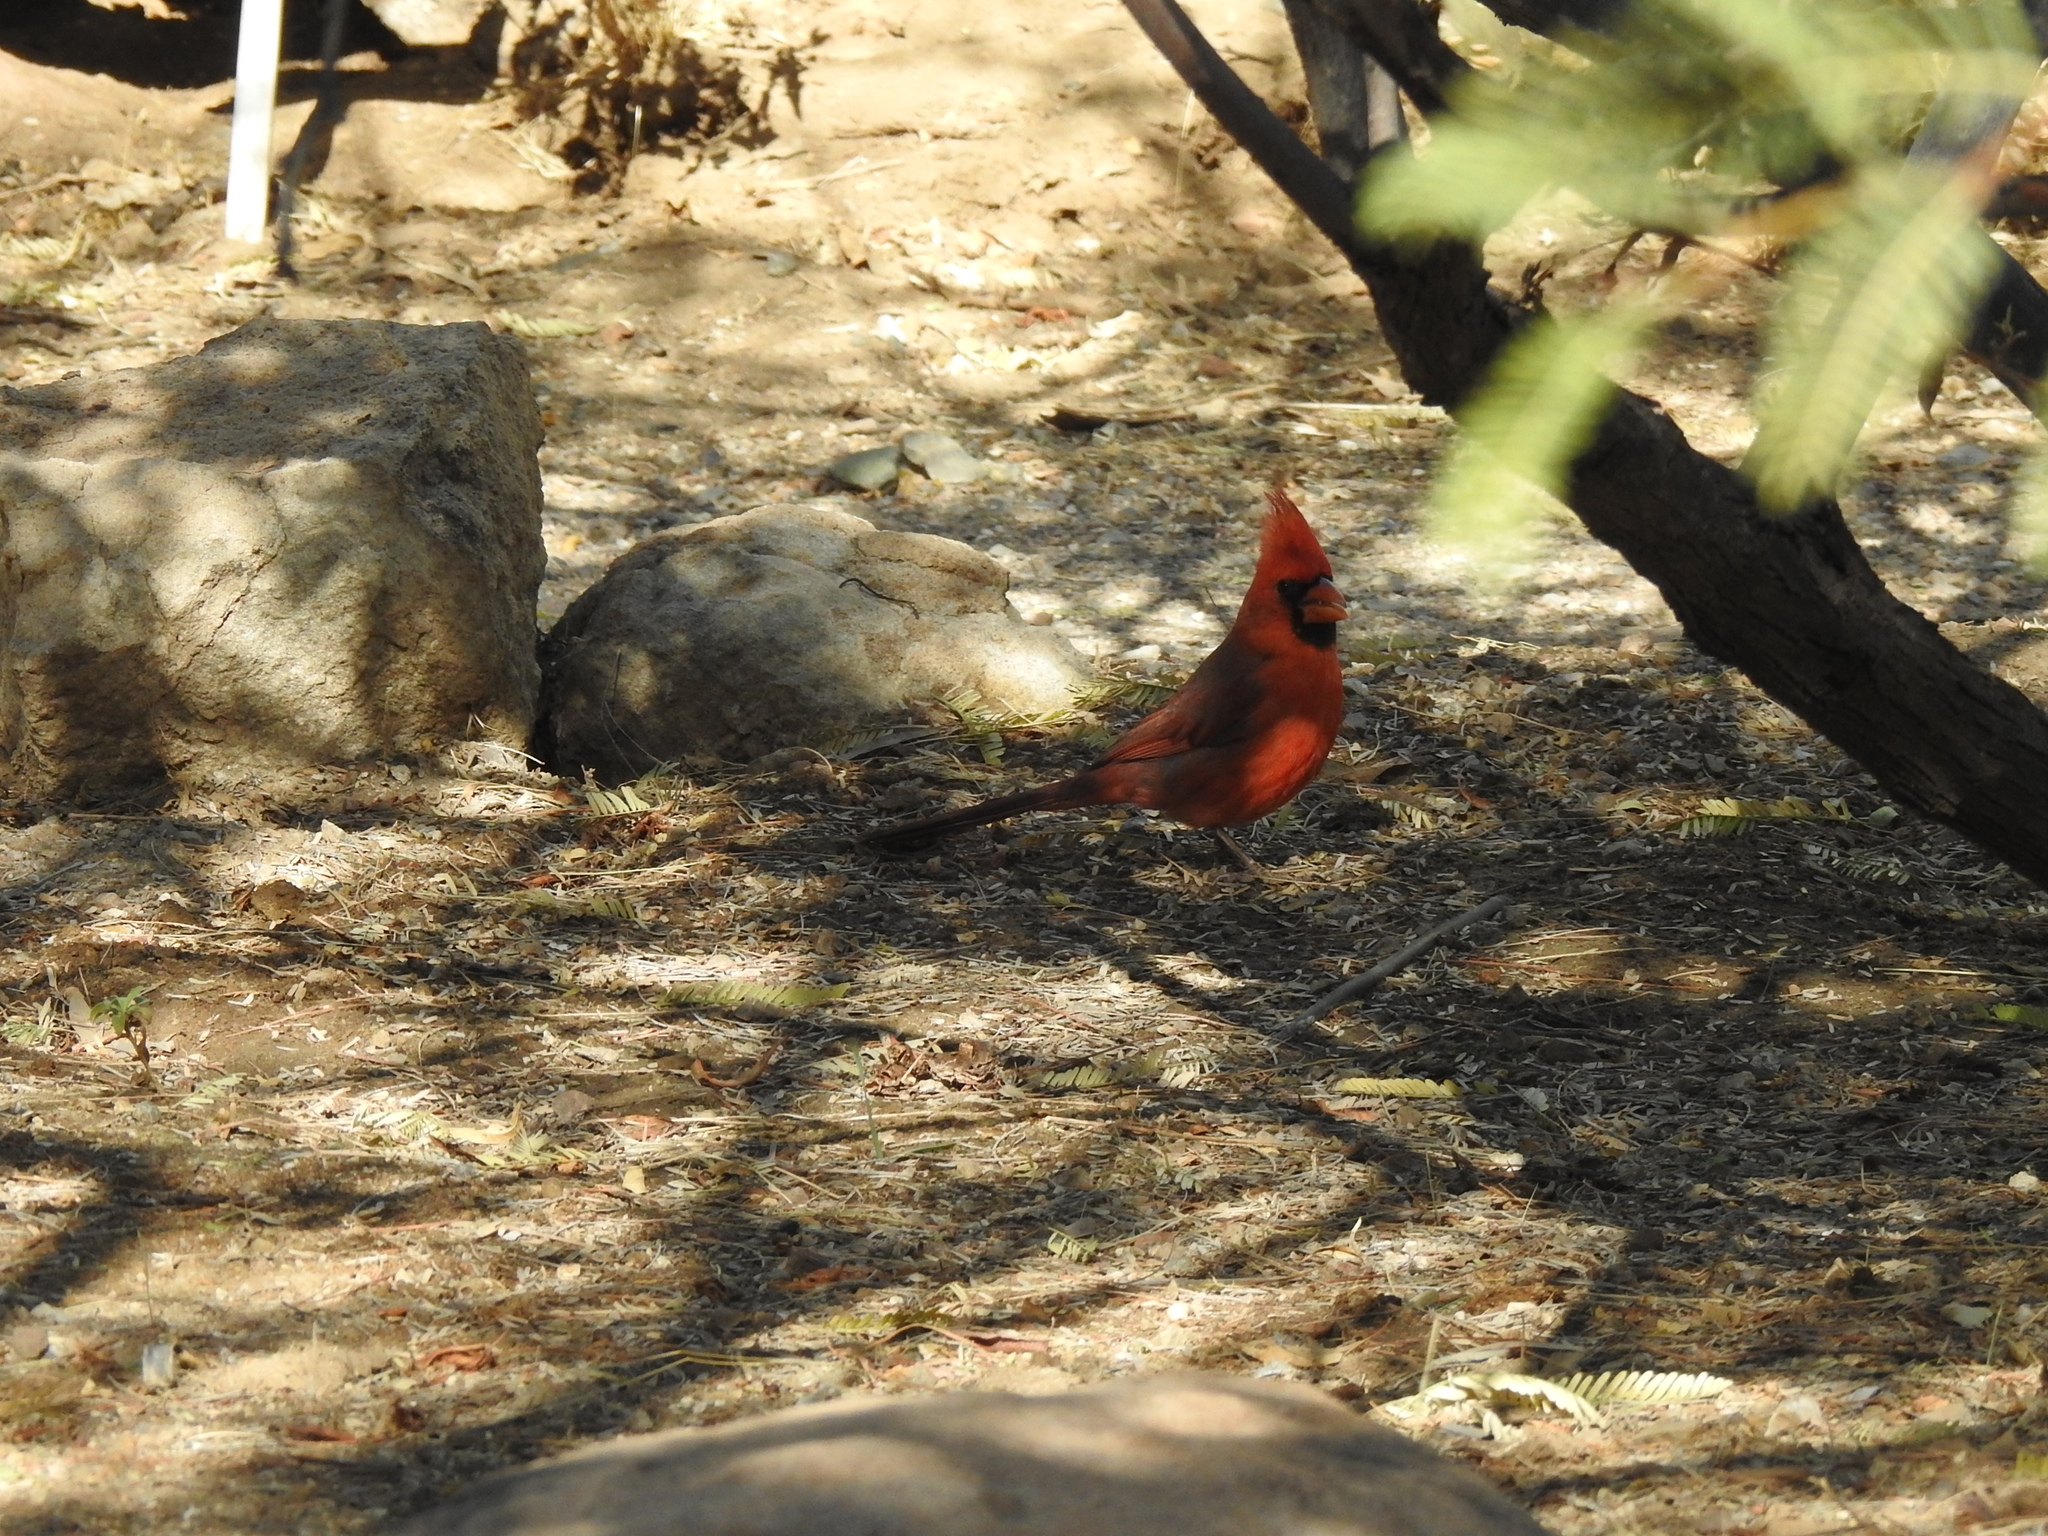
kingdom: Animalia
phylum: Chordata
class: Aves
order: Passeriformes
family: Cardinalidae
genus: Cardinalis
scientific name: Cardinalis cardinalis
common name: Northern cardinal
